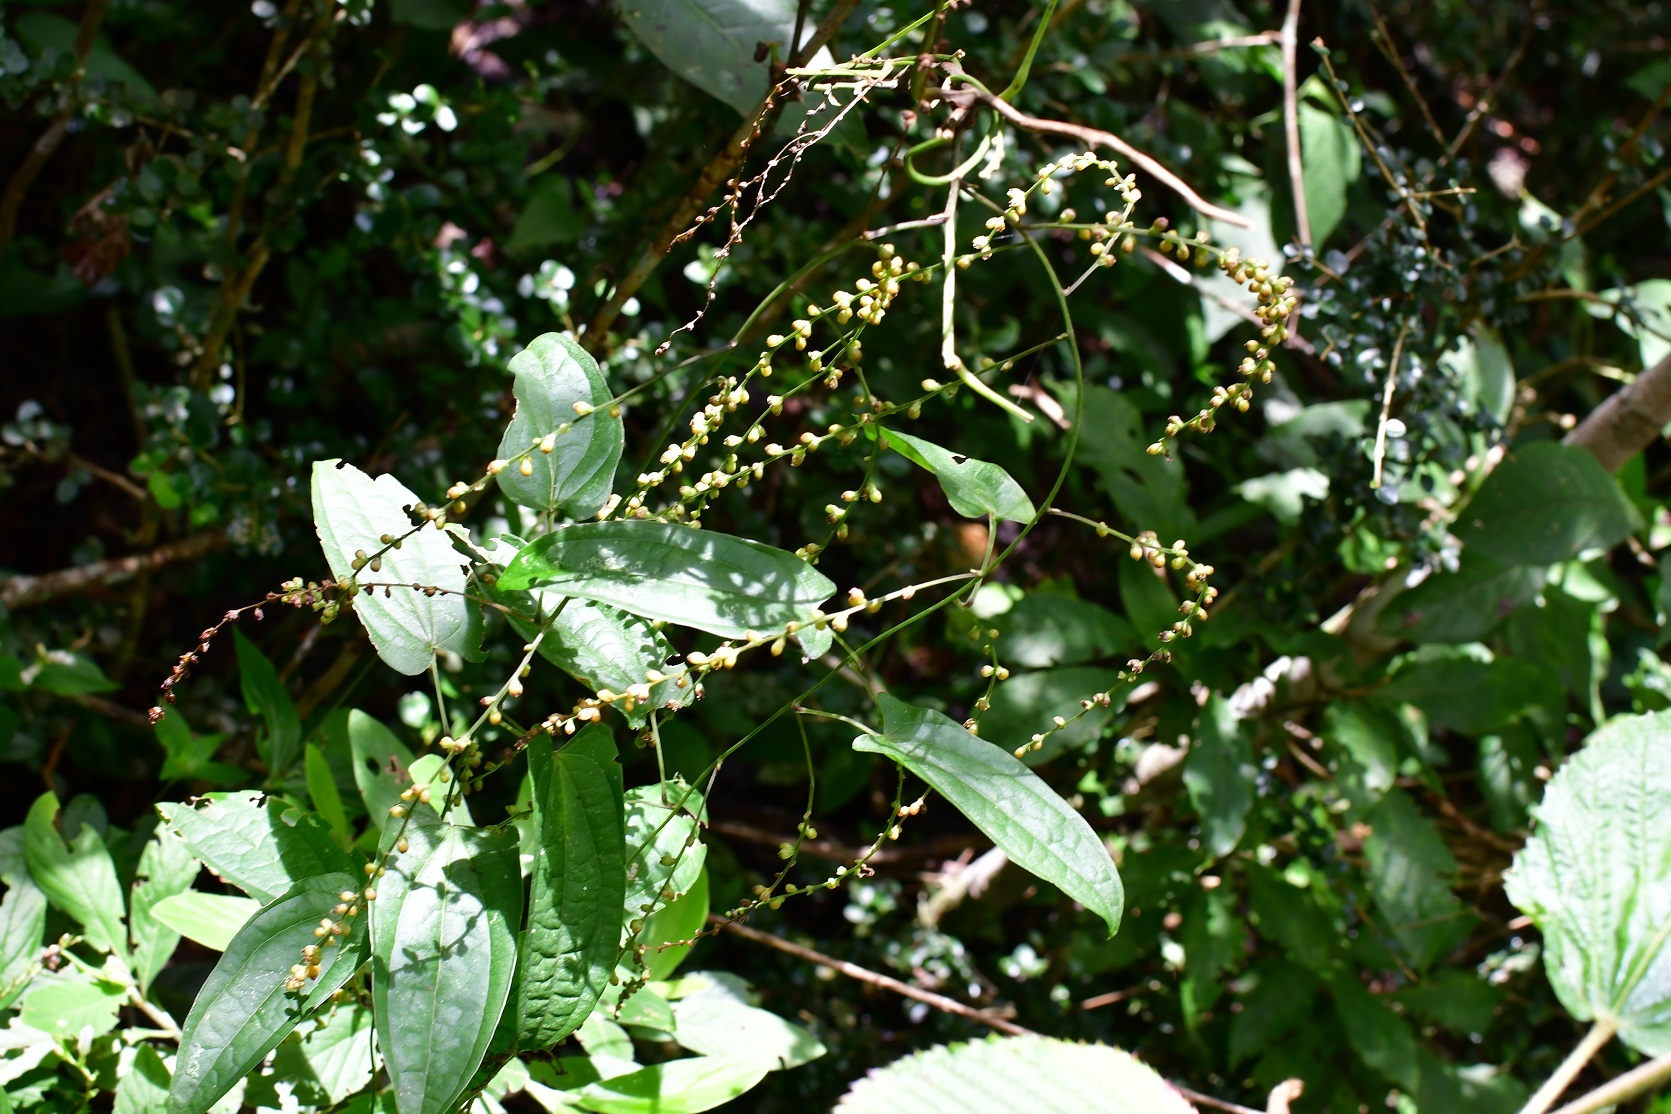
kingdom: Plantae
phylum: Tracheophyta
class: Liliopsida
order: Dioscoreales
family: Dioscoreaceae
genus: Dioscorea
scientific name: Dioscorea spiculiflora
